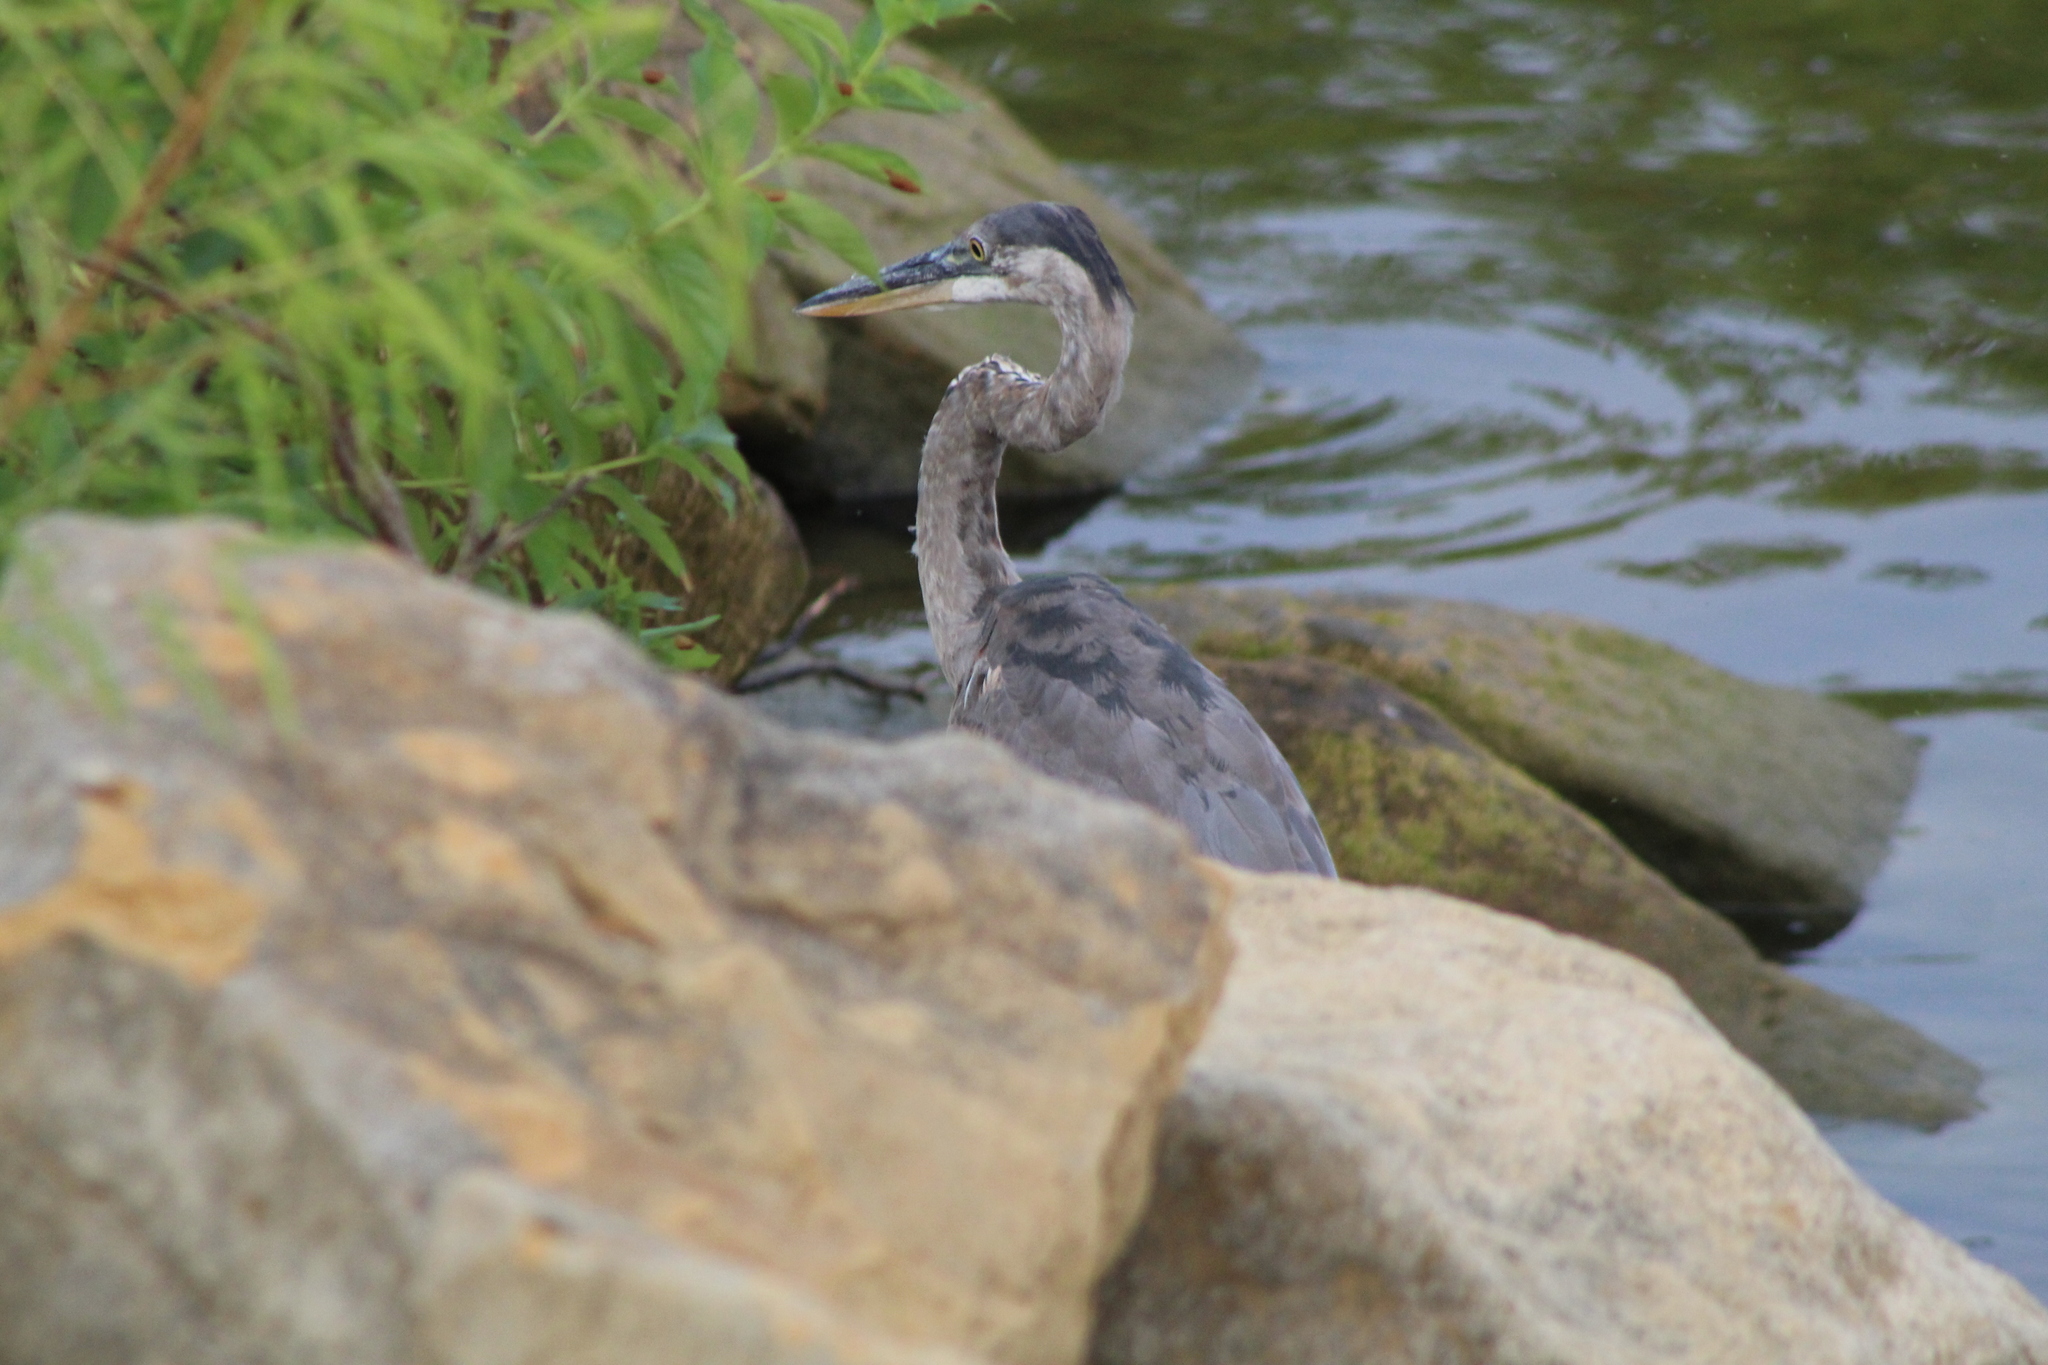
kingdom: Animalia
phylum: Chordata
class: Aves
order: Pelecaniformes
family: Ardeidae
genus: Ardea
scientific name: Ardea herodias
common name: Great blue heron
